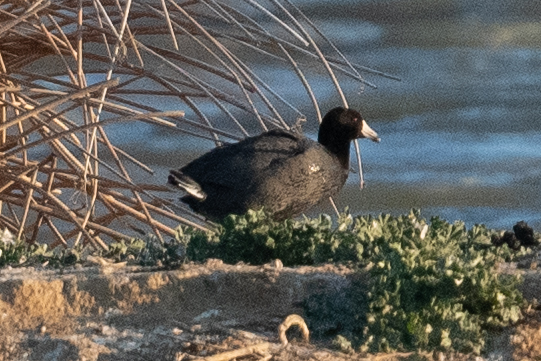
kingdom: Animalia
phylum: Chordata
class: Aves
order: Gruiformes
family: Rallidae
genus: Fulica
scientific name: Fulica americana
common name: American coot
